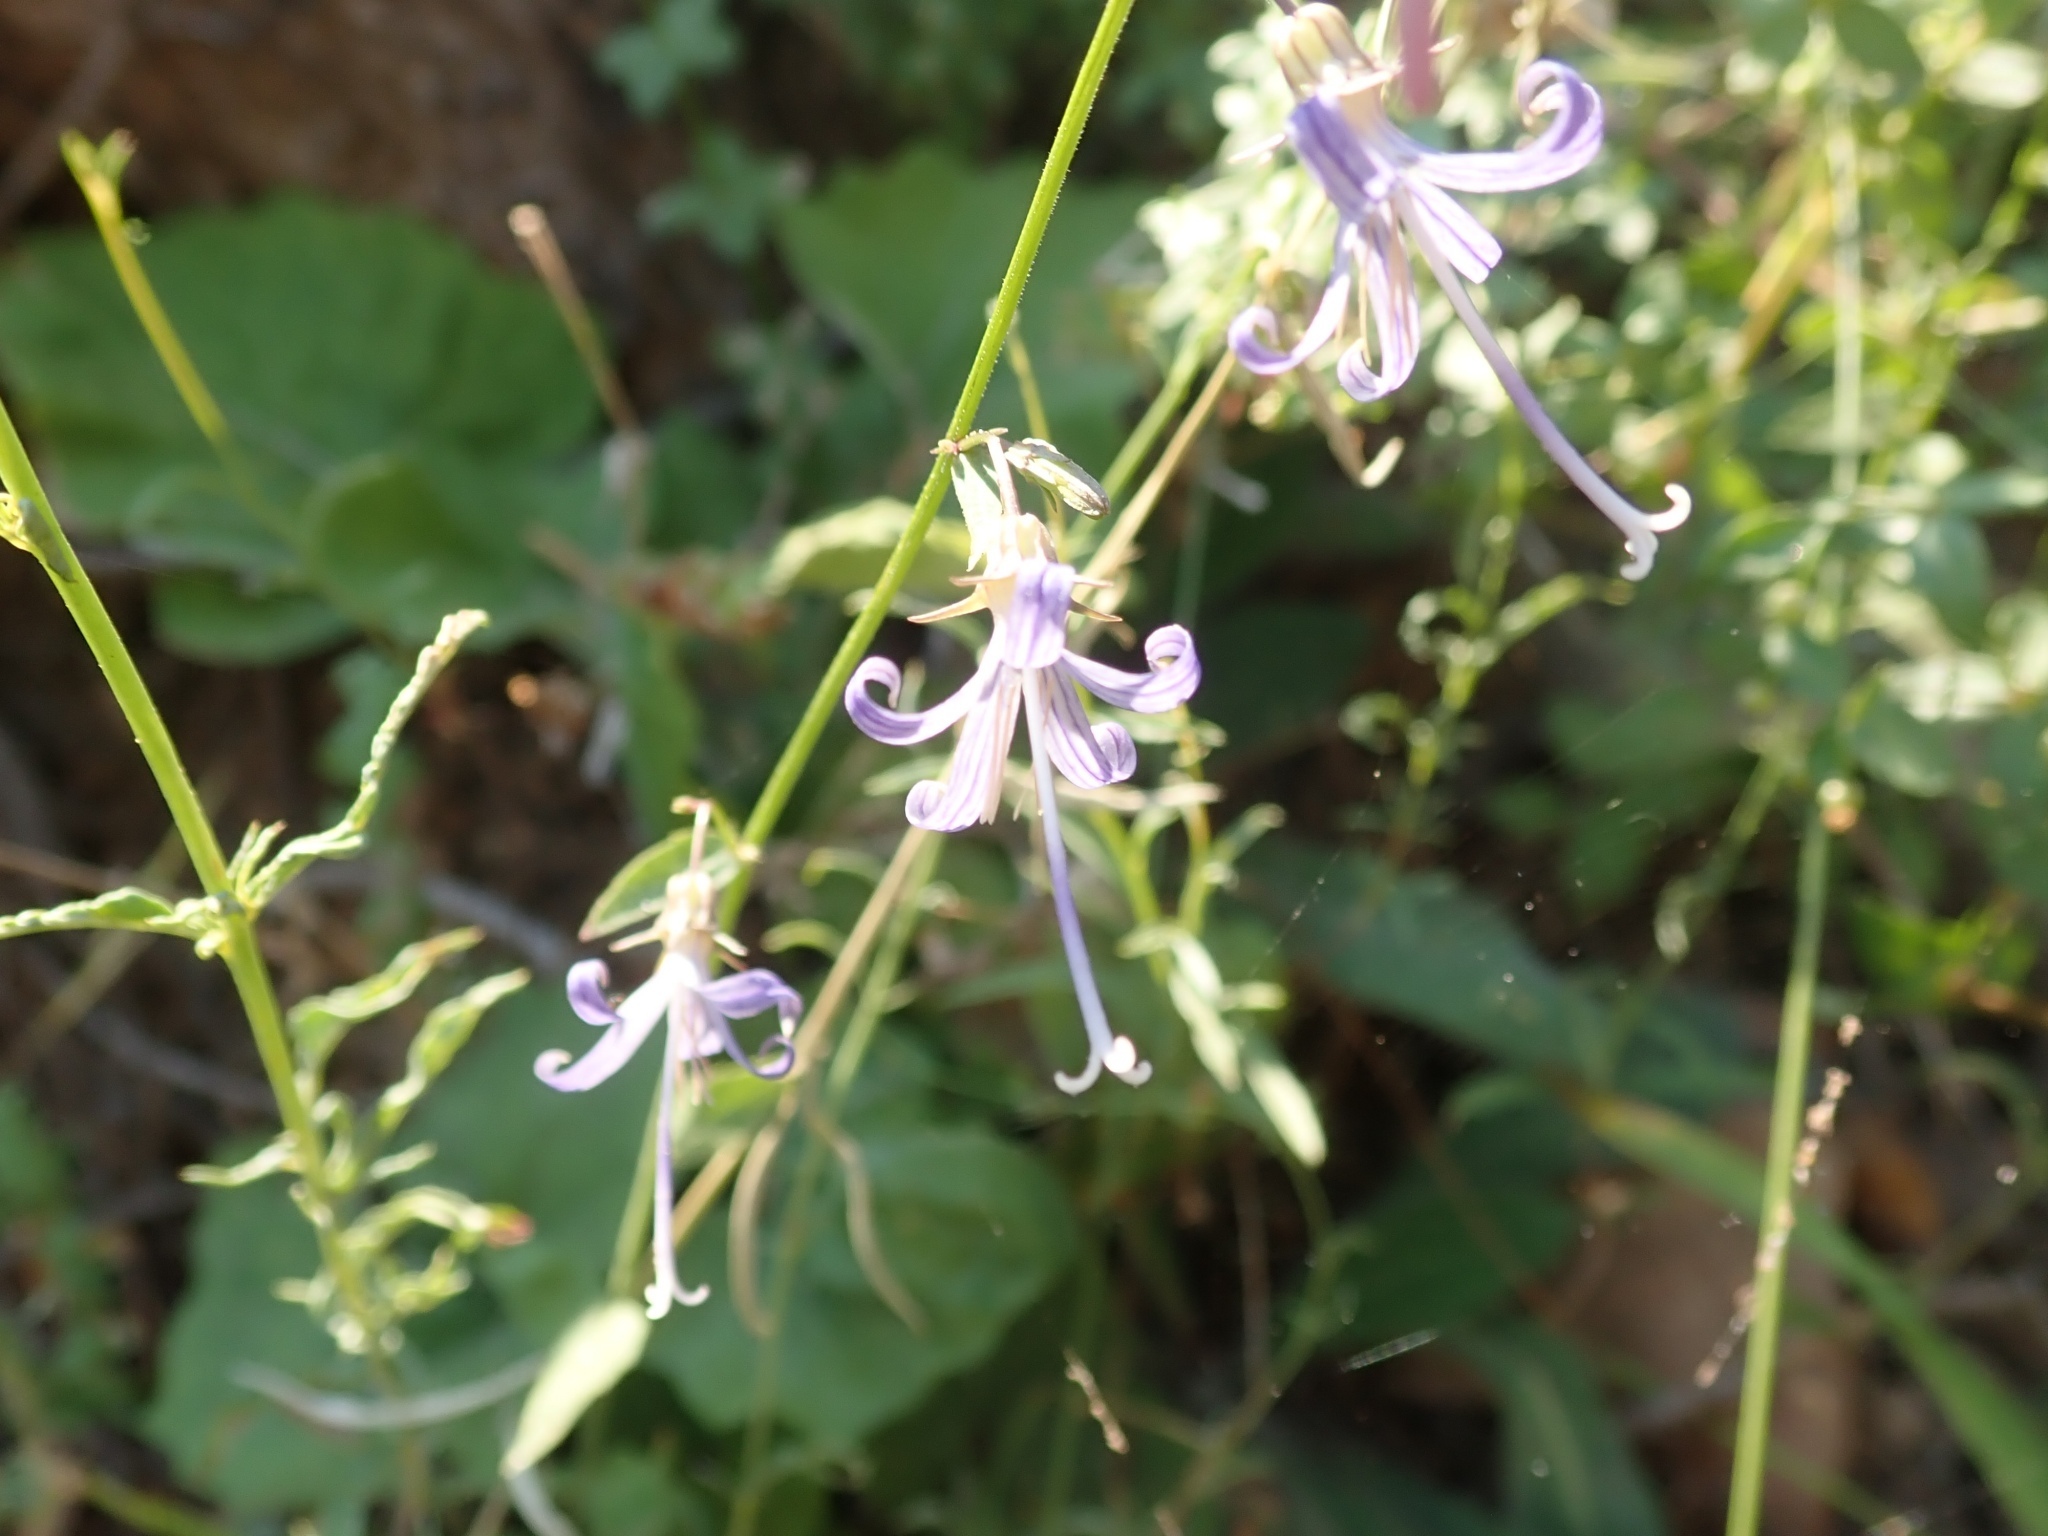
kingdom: Plantae
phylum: Tracheophyta
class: Magnoliopsida
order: Asterales
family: Campanulaceae
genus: Smithiastrum
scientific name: Smithiastrum prenanthoides
